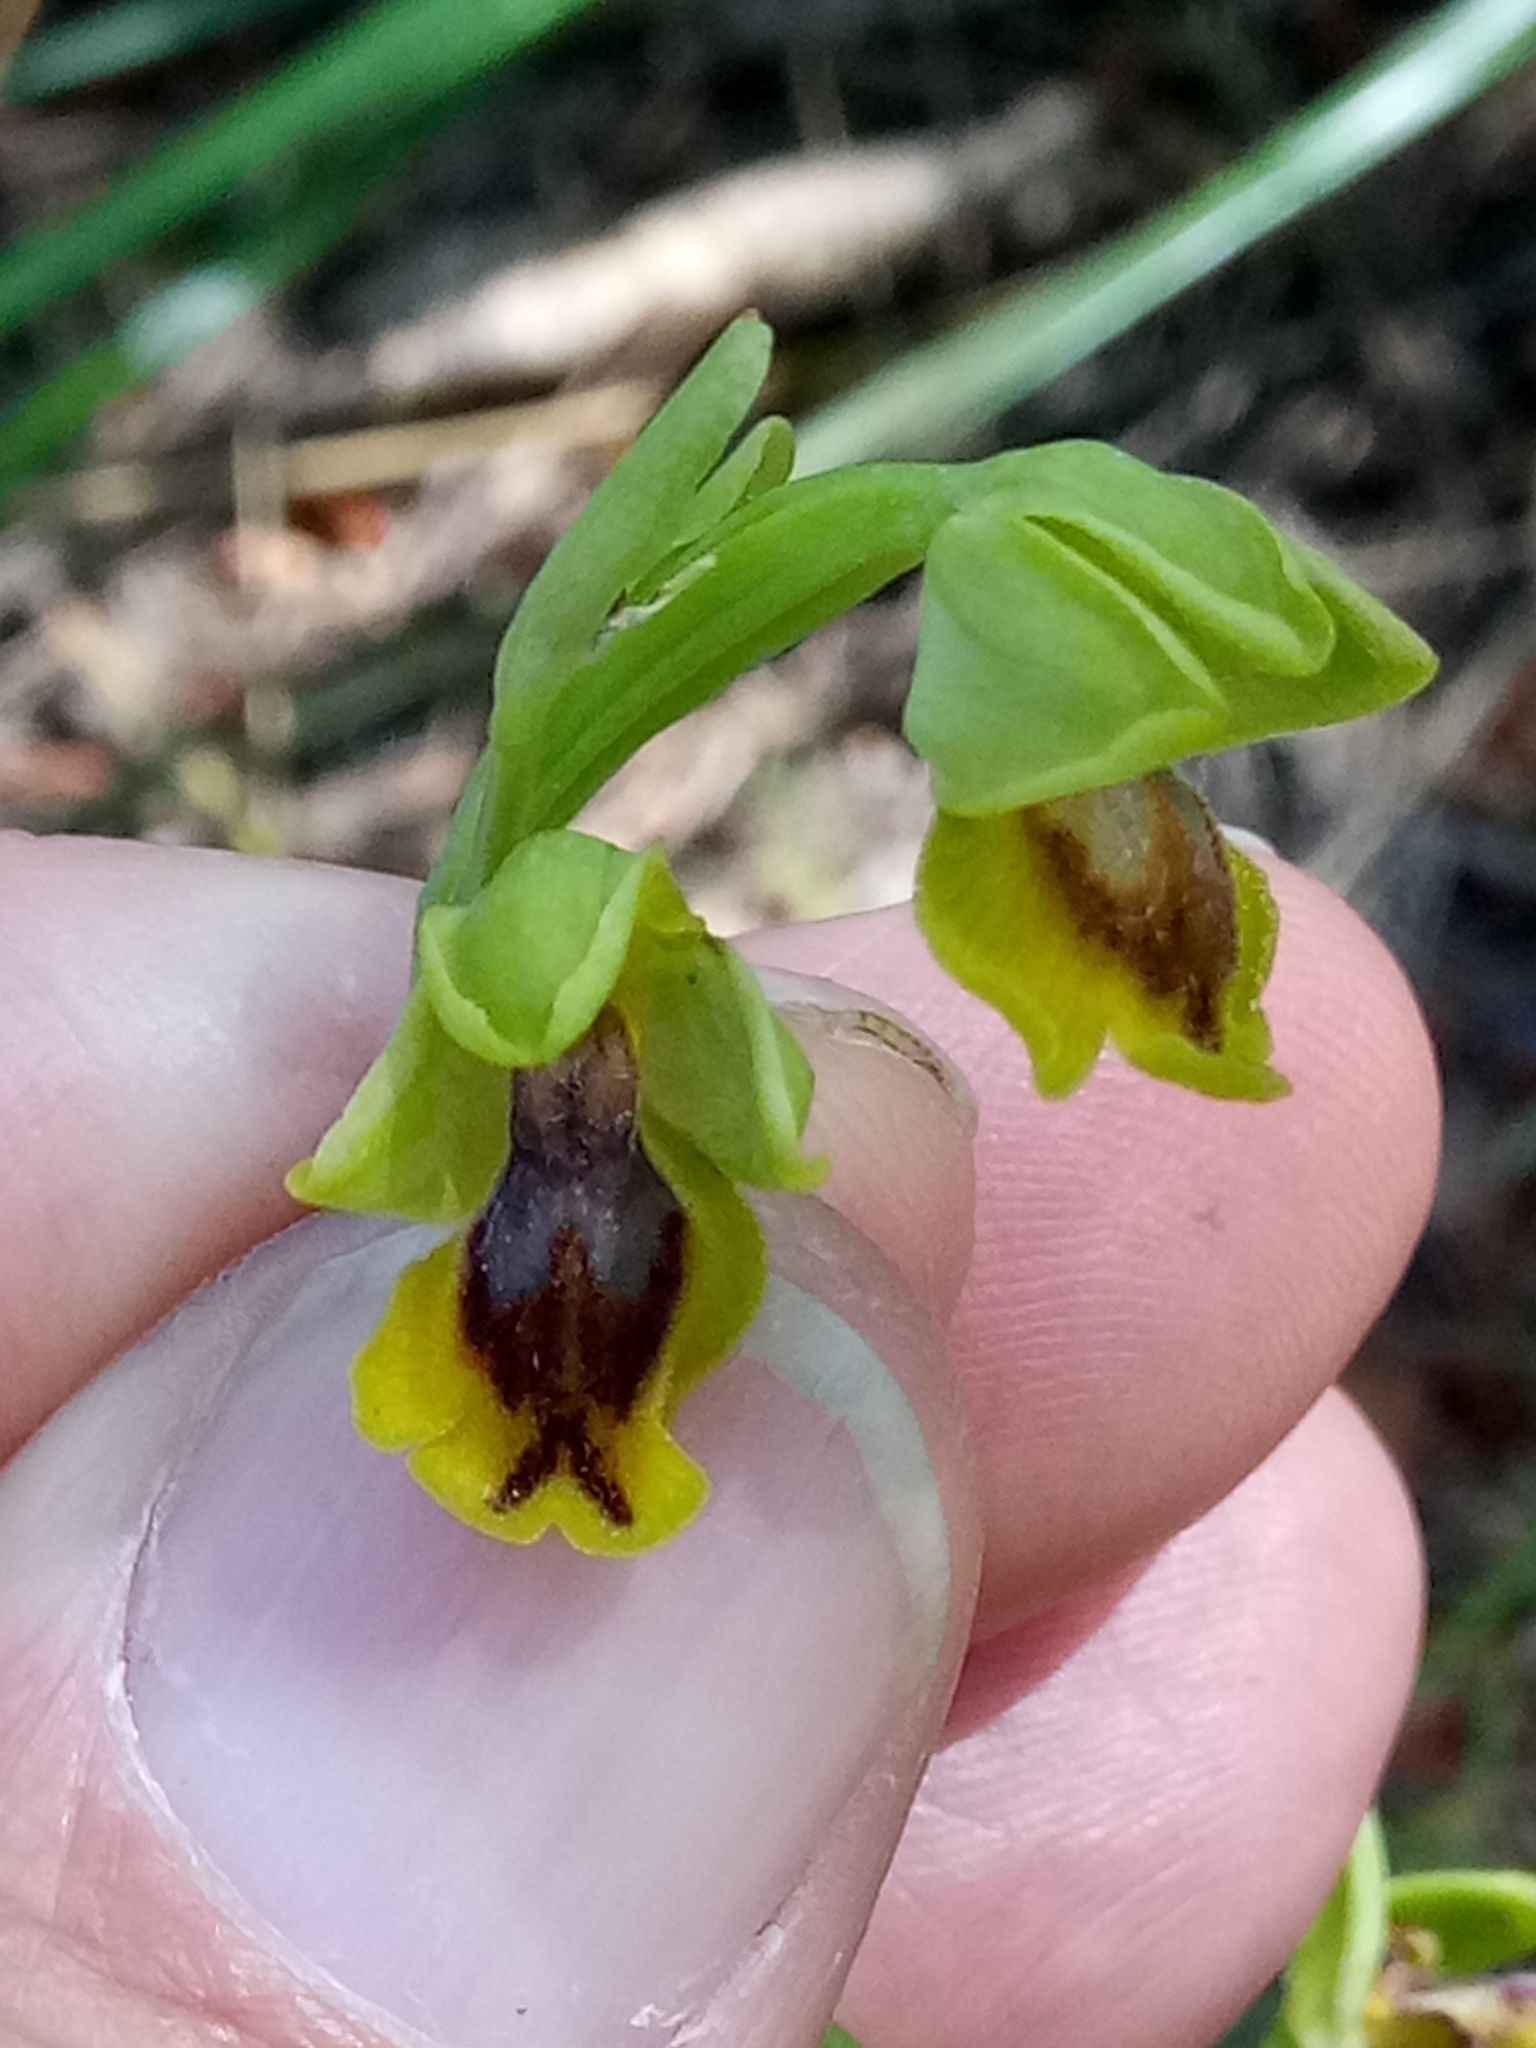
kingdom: Plantae
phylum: Tracheophyta
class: Liliopsida
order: Asparagales
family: Orchidaceae
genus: Ophrys
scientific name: Ophrys lutea
